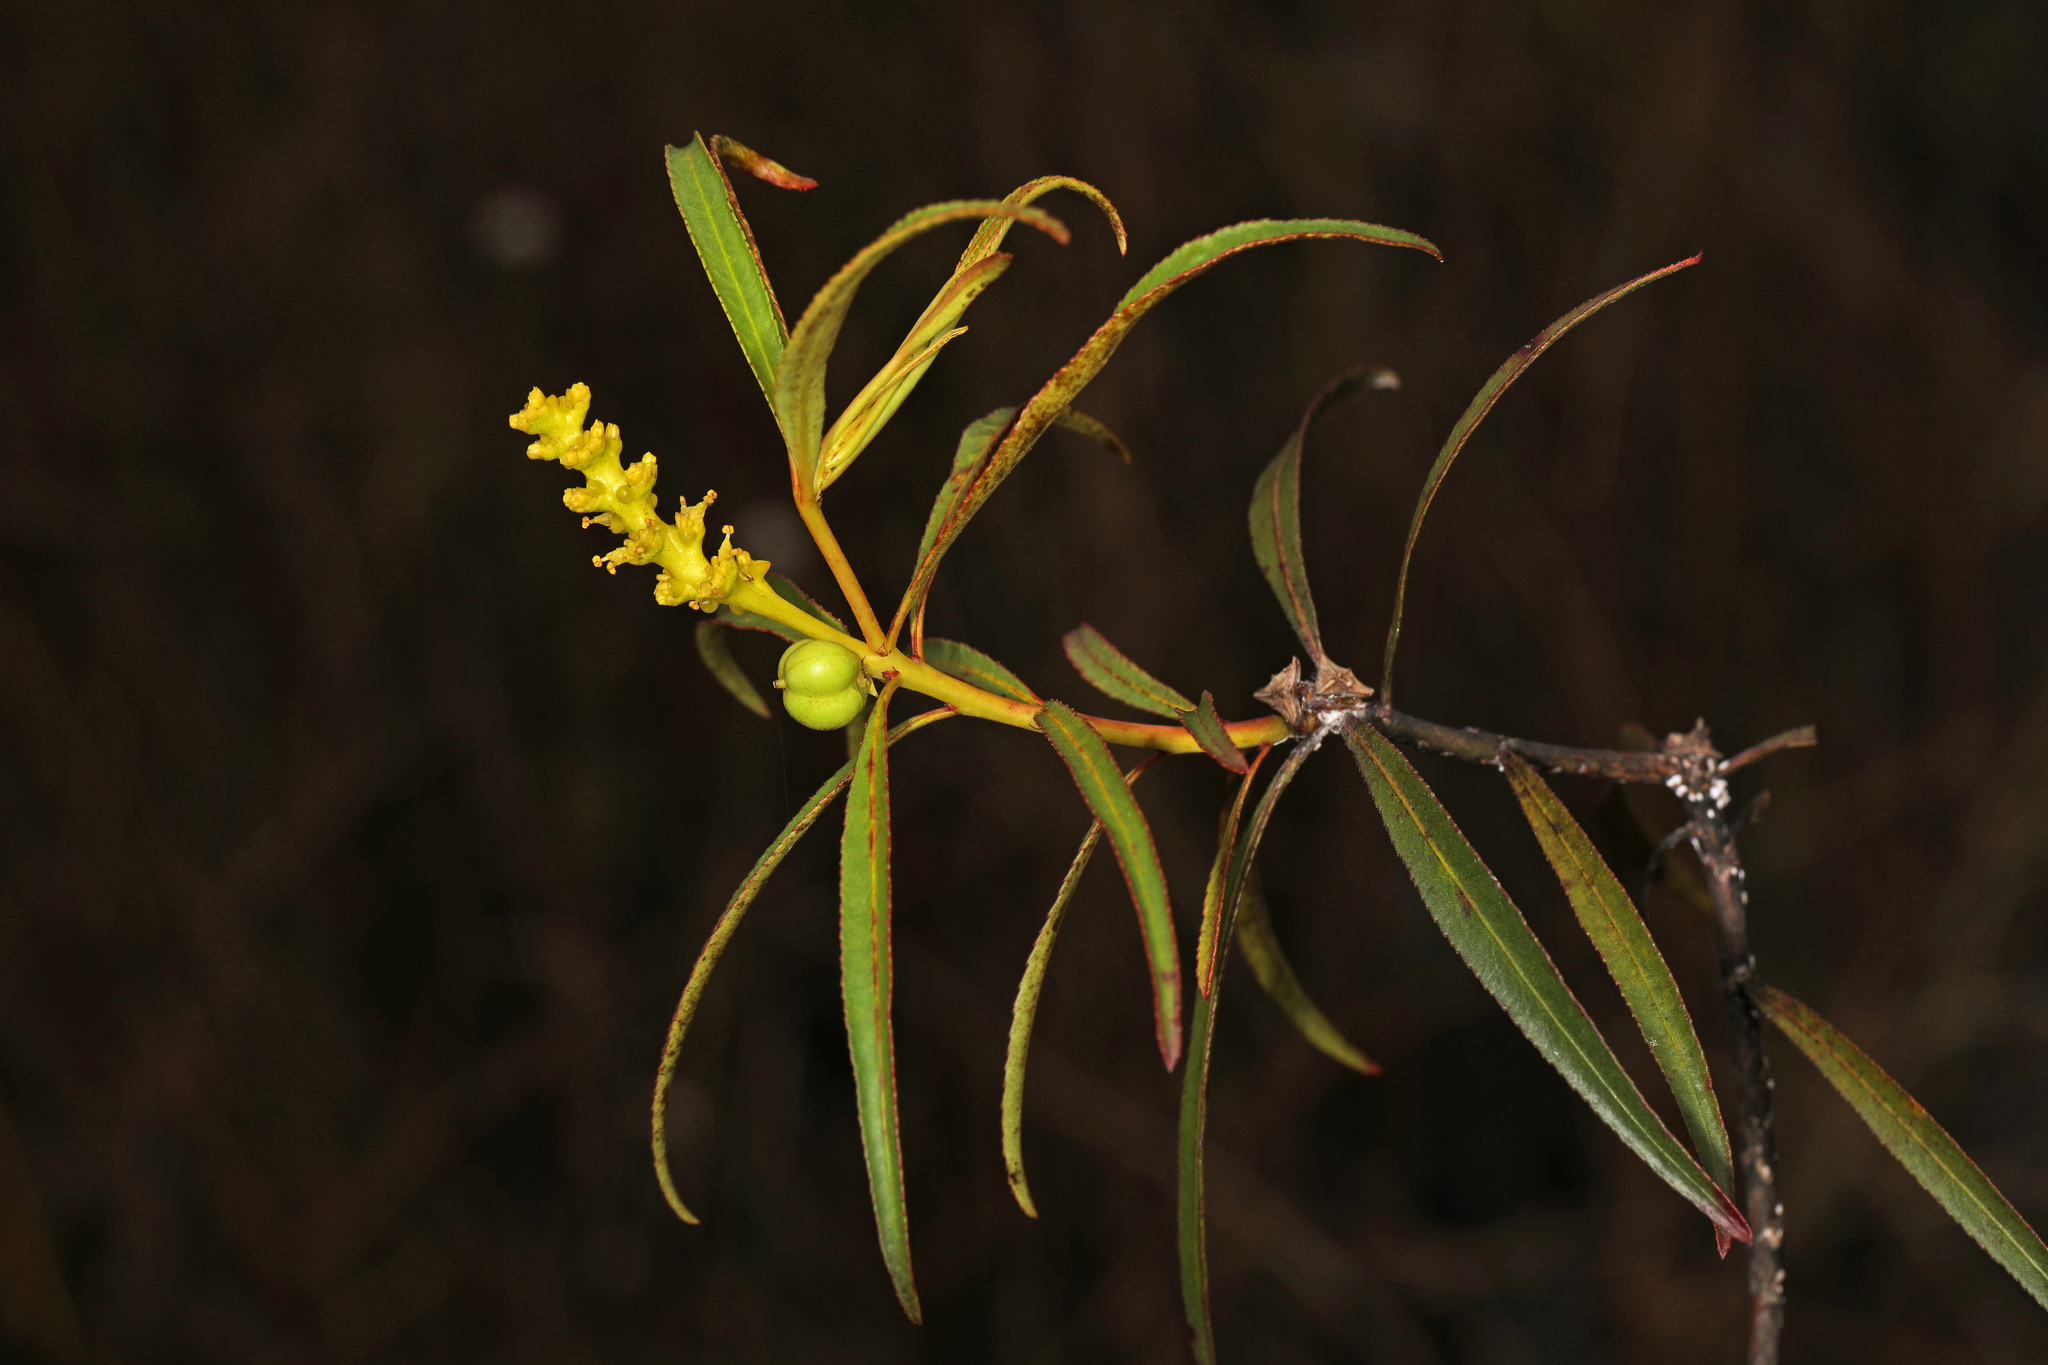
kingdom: Plantae
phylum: Tracheophyta
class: Magnoliopsida
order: Malpighiales
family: Euphorbiaceae
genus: Stillingia
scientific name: Stillingia aquatica
